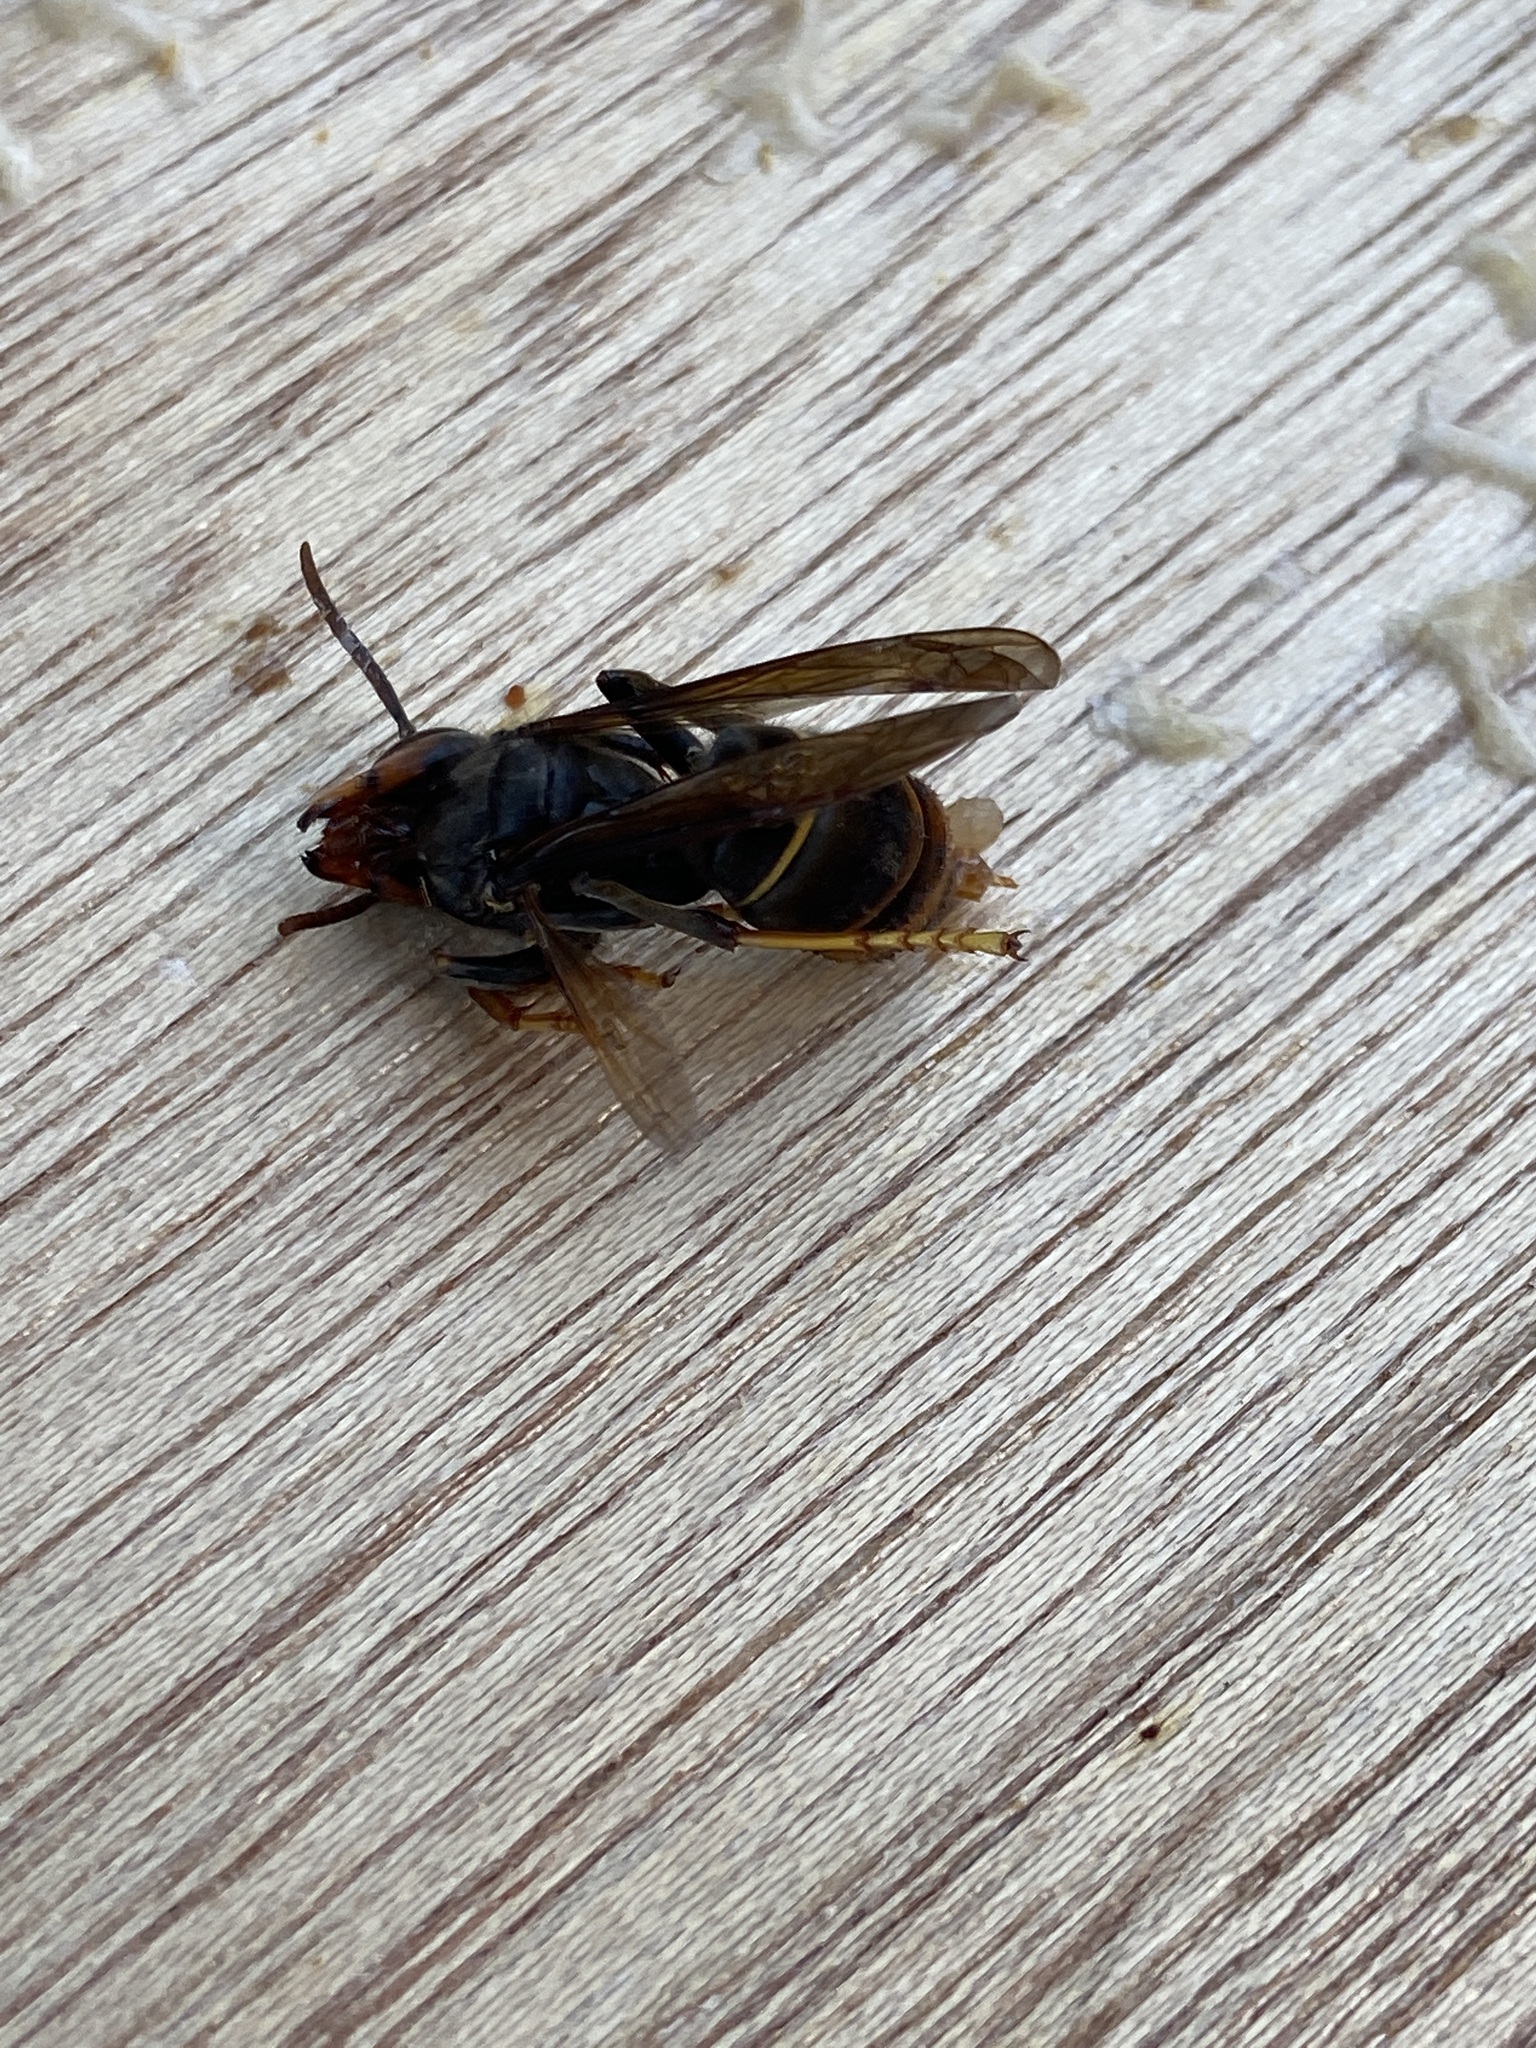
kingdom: Animalia
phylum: Arthropoda
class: Insecta
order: Hymenoptera
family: Vespidae
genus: Vespa
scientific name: Vespa velutina
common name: Asian hornet
